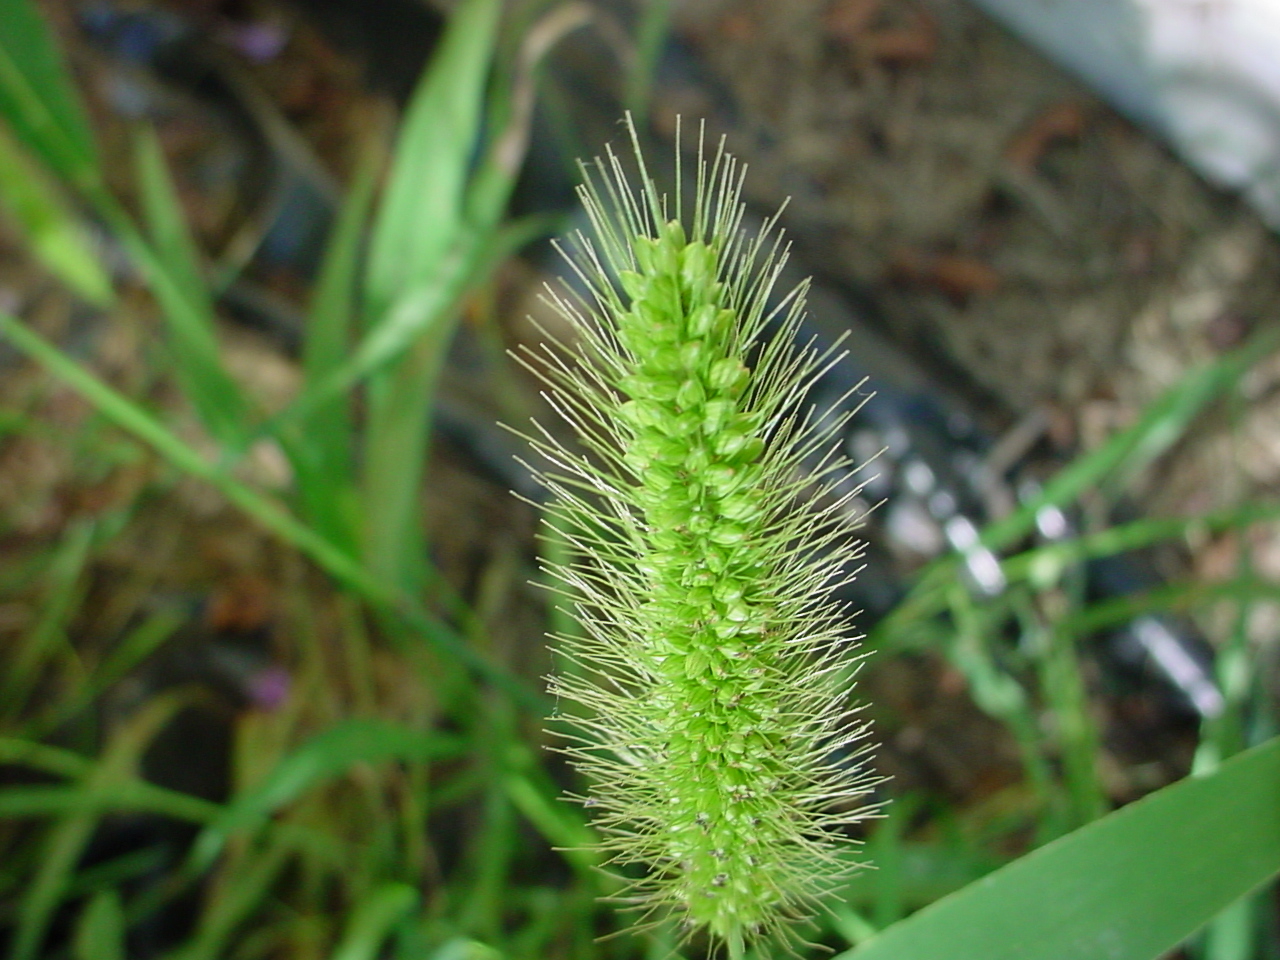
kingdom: Plantae
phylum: Tracheophyta
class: Liliopsida
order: Poales
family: Poaceae
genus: Setaria
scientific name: Setaria viridis
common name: Green bristlegrass
